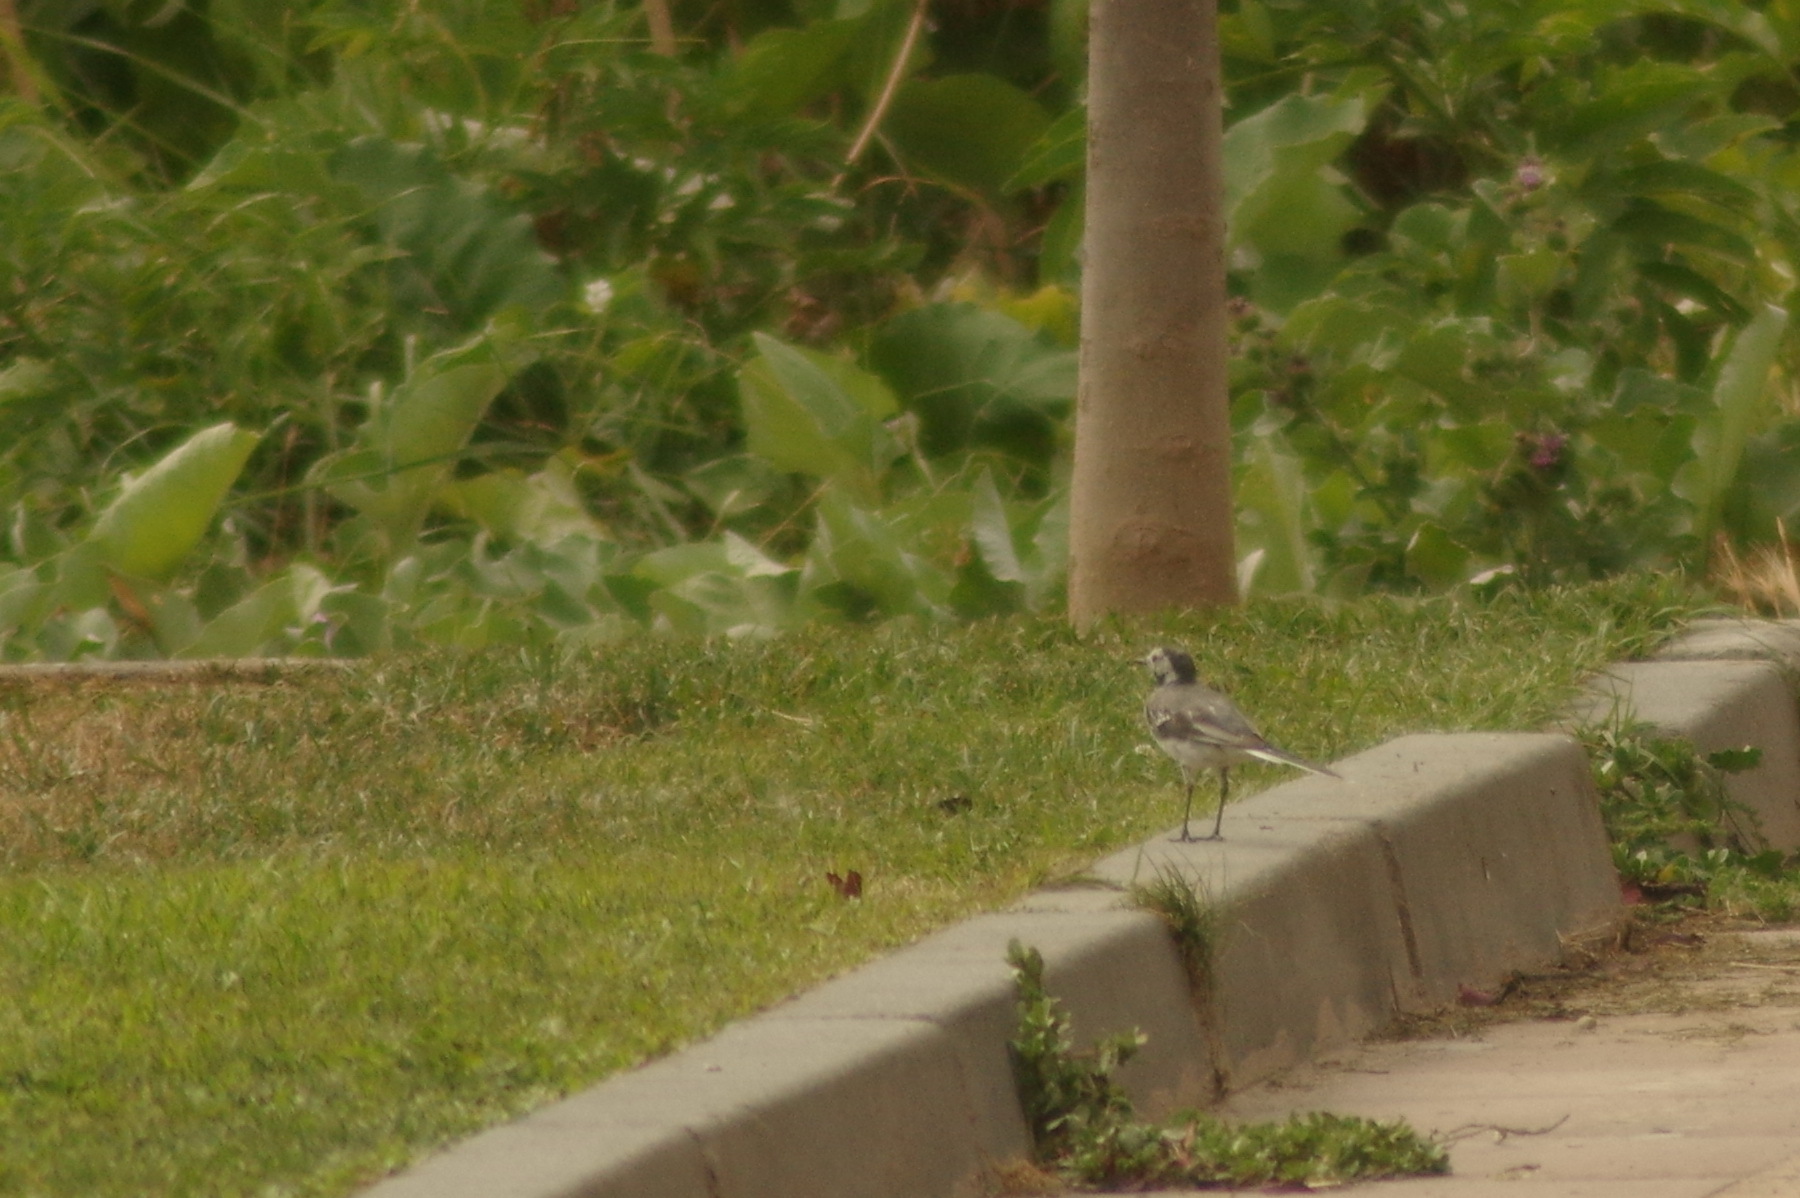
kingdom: Animalia
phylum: Chordata
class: Aves
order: Passeriformes
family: Motacillidae
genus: Motacilla
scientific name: Motacilla alba
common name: White wagtail
